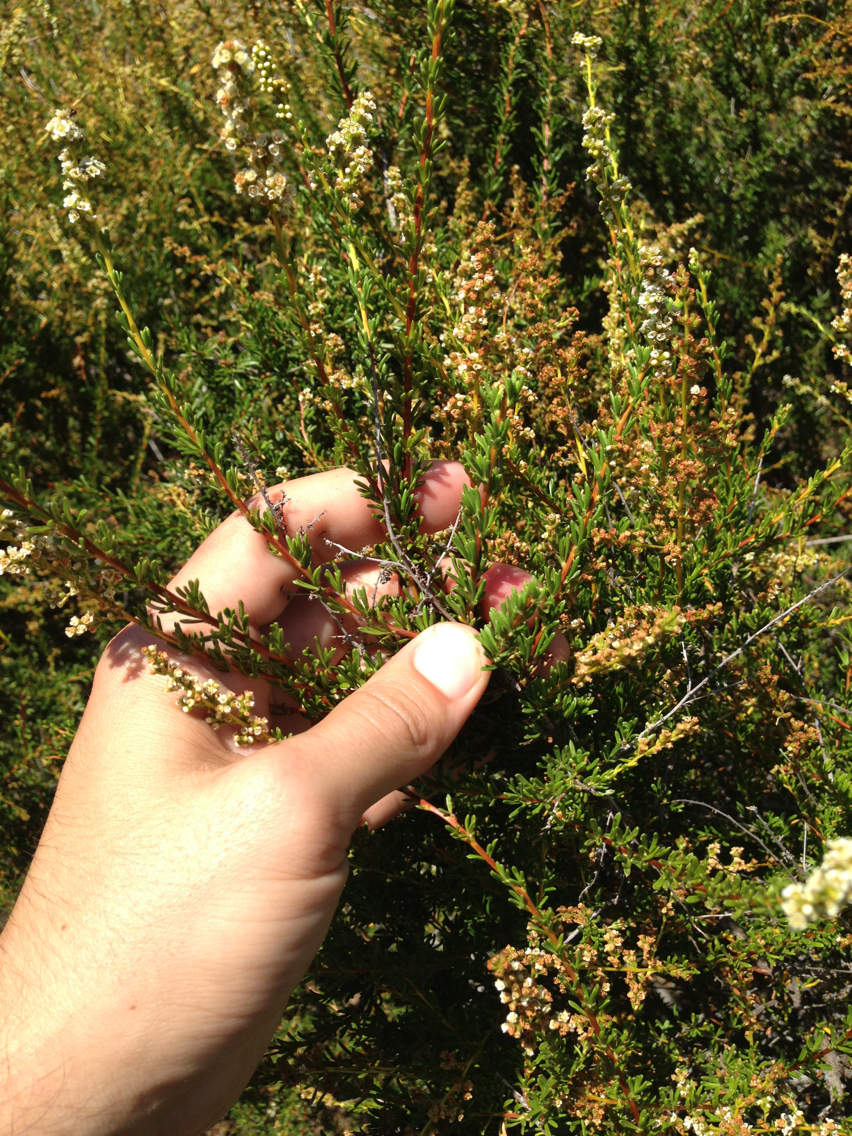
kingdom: Plantae
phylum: Tracheophyta
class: Magnoliopsida
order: Rosales
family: Rosaceae
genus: Adenostoma
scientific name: Adenostoma fasciculatum
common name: Chamise
